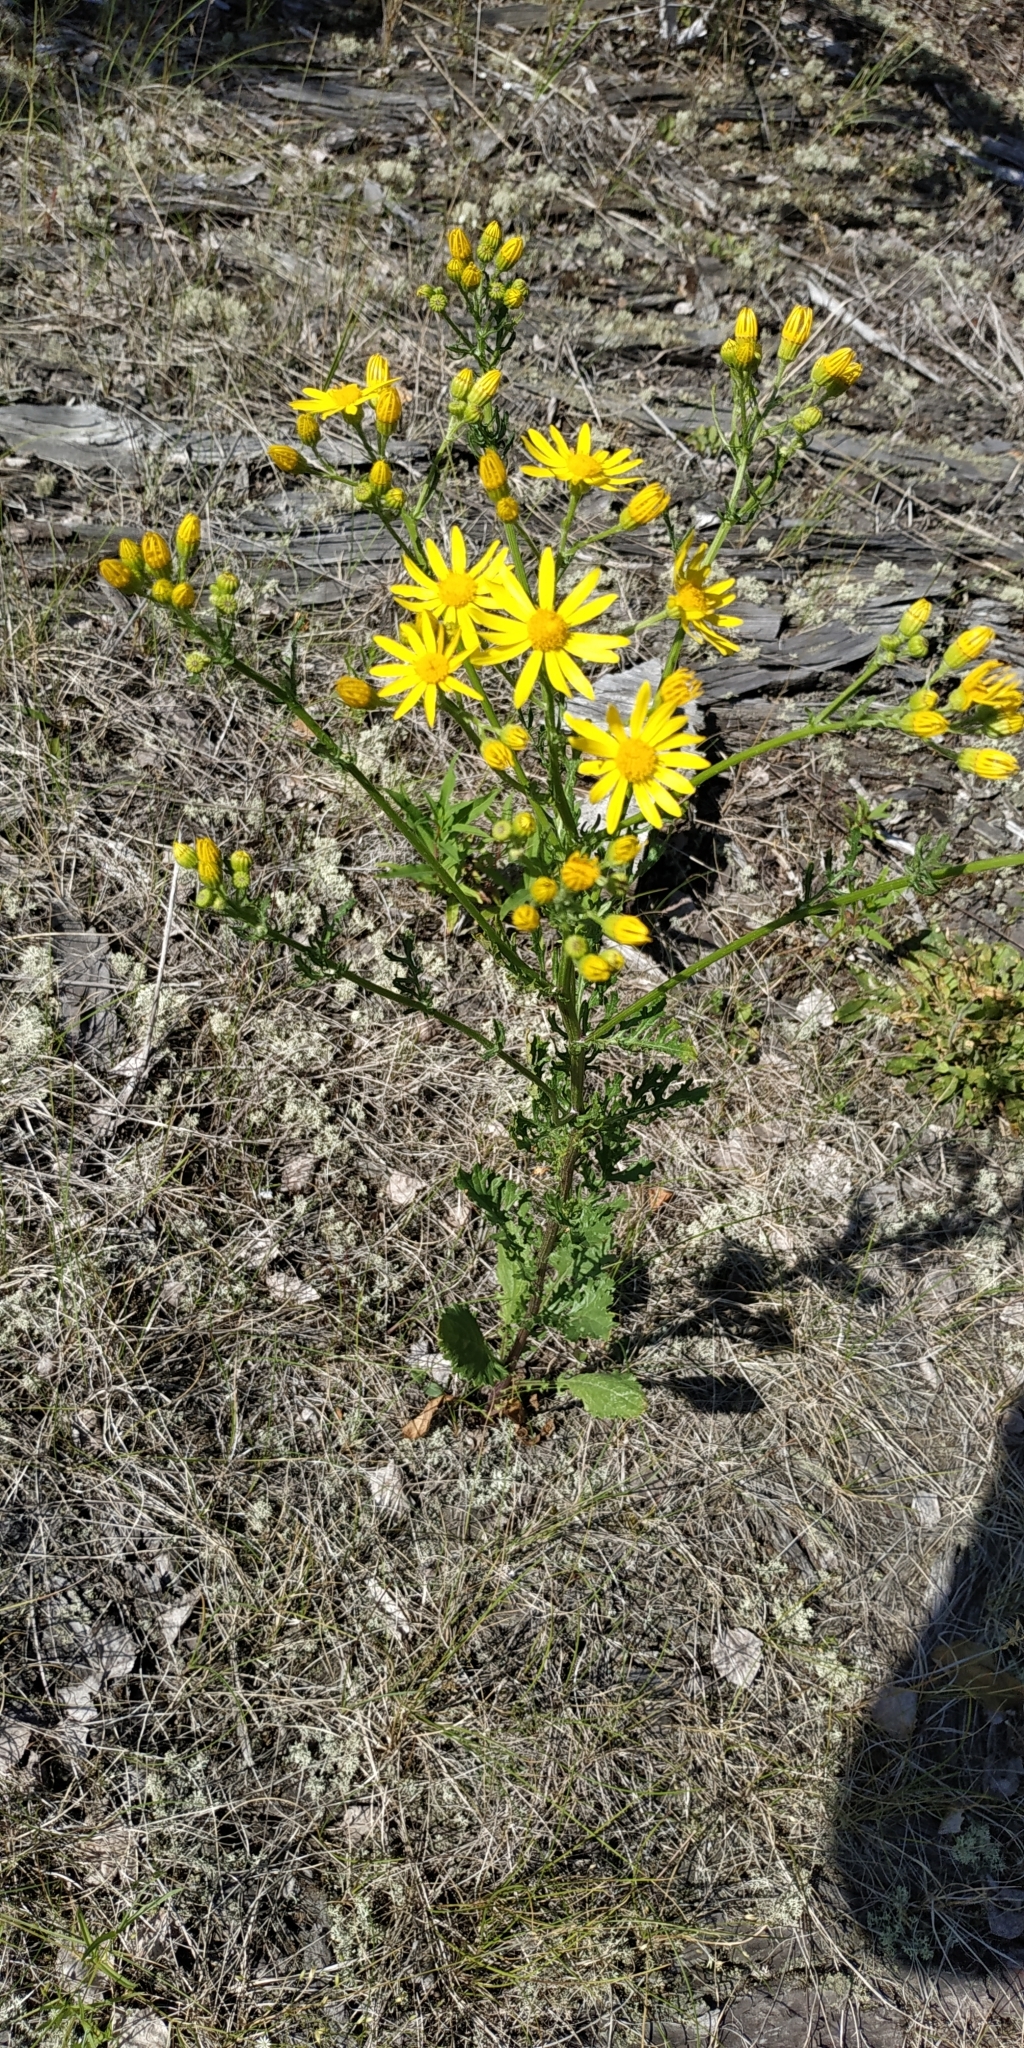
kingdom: Plantae
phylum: Tracheophyta
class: Magnoliopsida
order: Asterales
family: Asteraceae
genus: Jacobaea
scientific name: Jacobaea vulgaris
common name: Stinking willie
